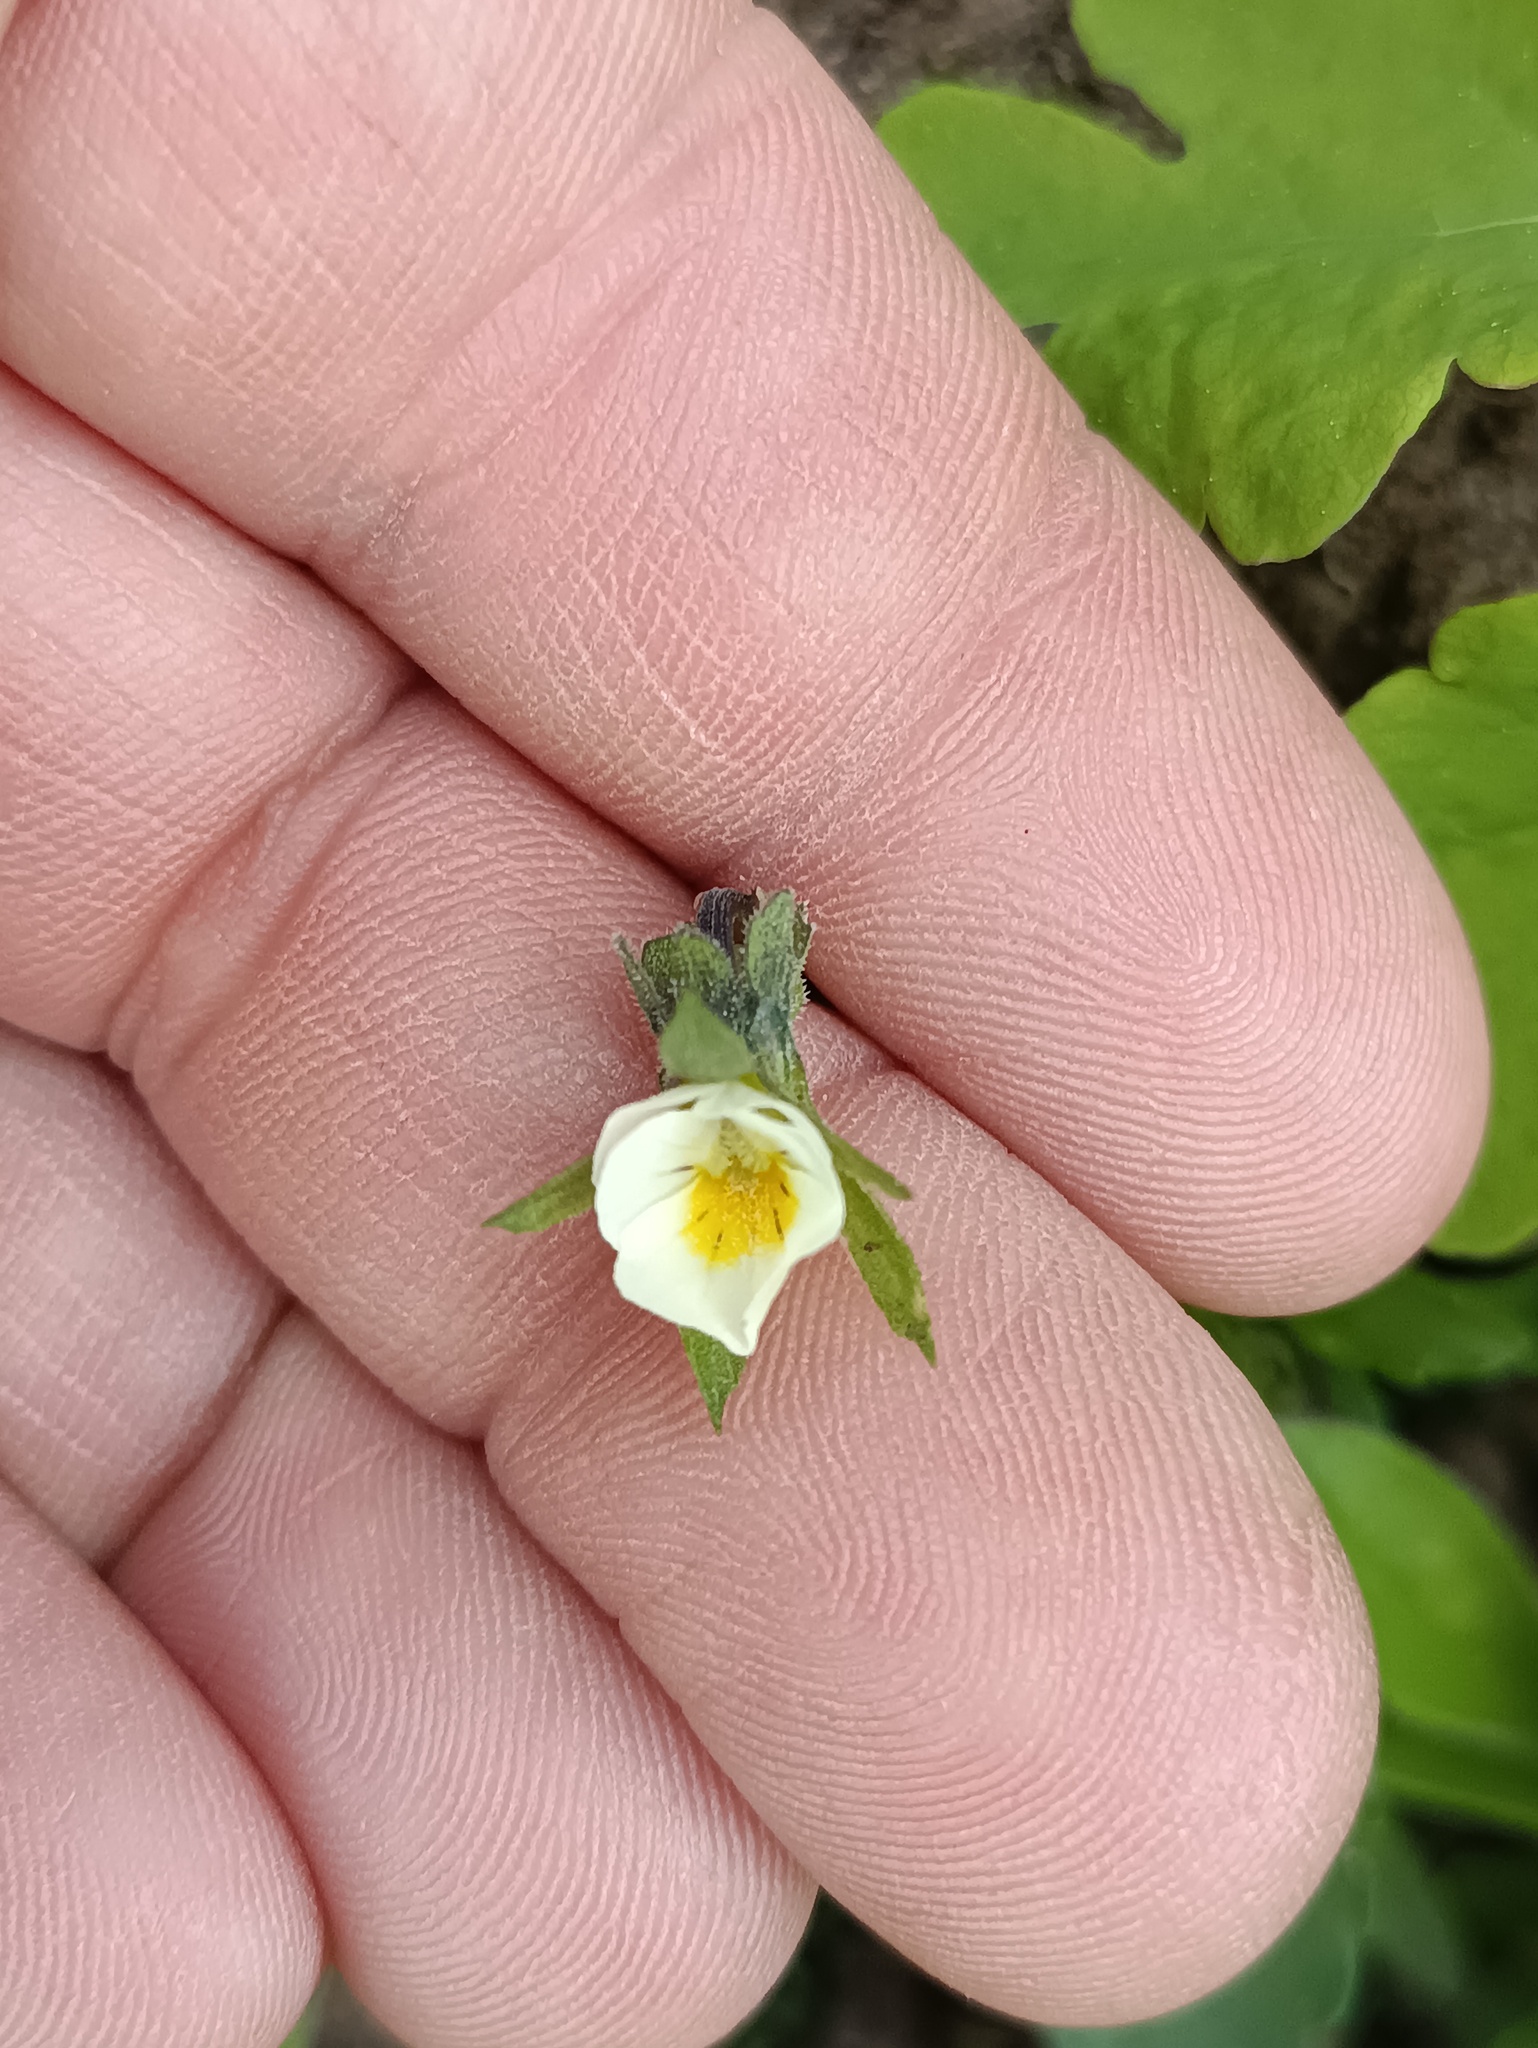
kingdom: Plantae
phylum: Tracheophyta
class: Magnoliopsida
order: Malpighiales
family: Violaceae
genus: Viola
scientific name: Viola arvensis
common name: Field pansy
